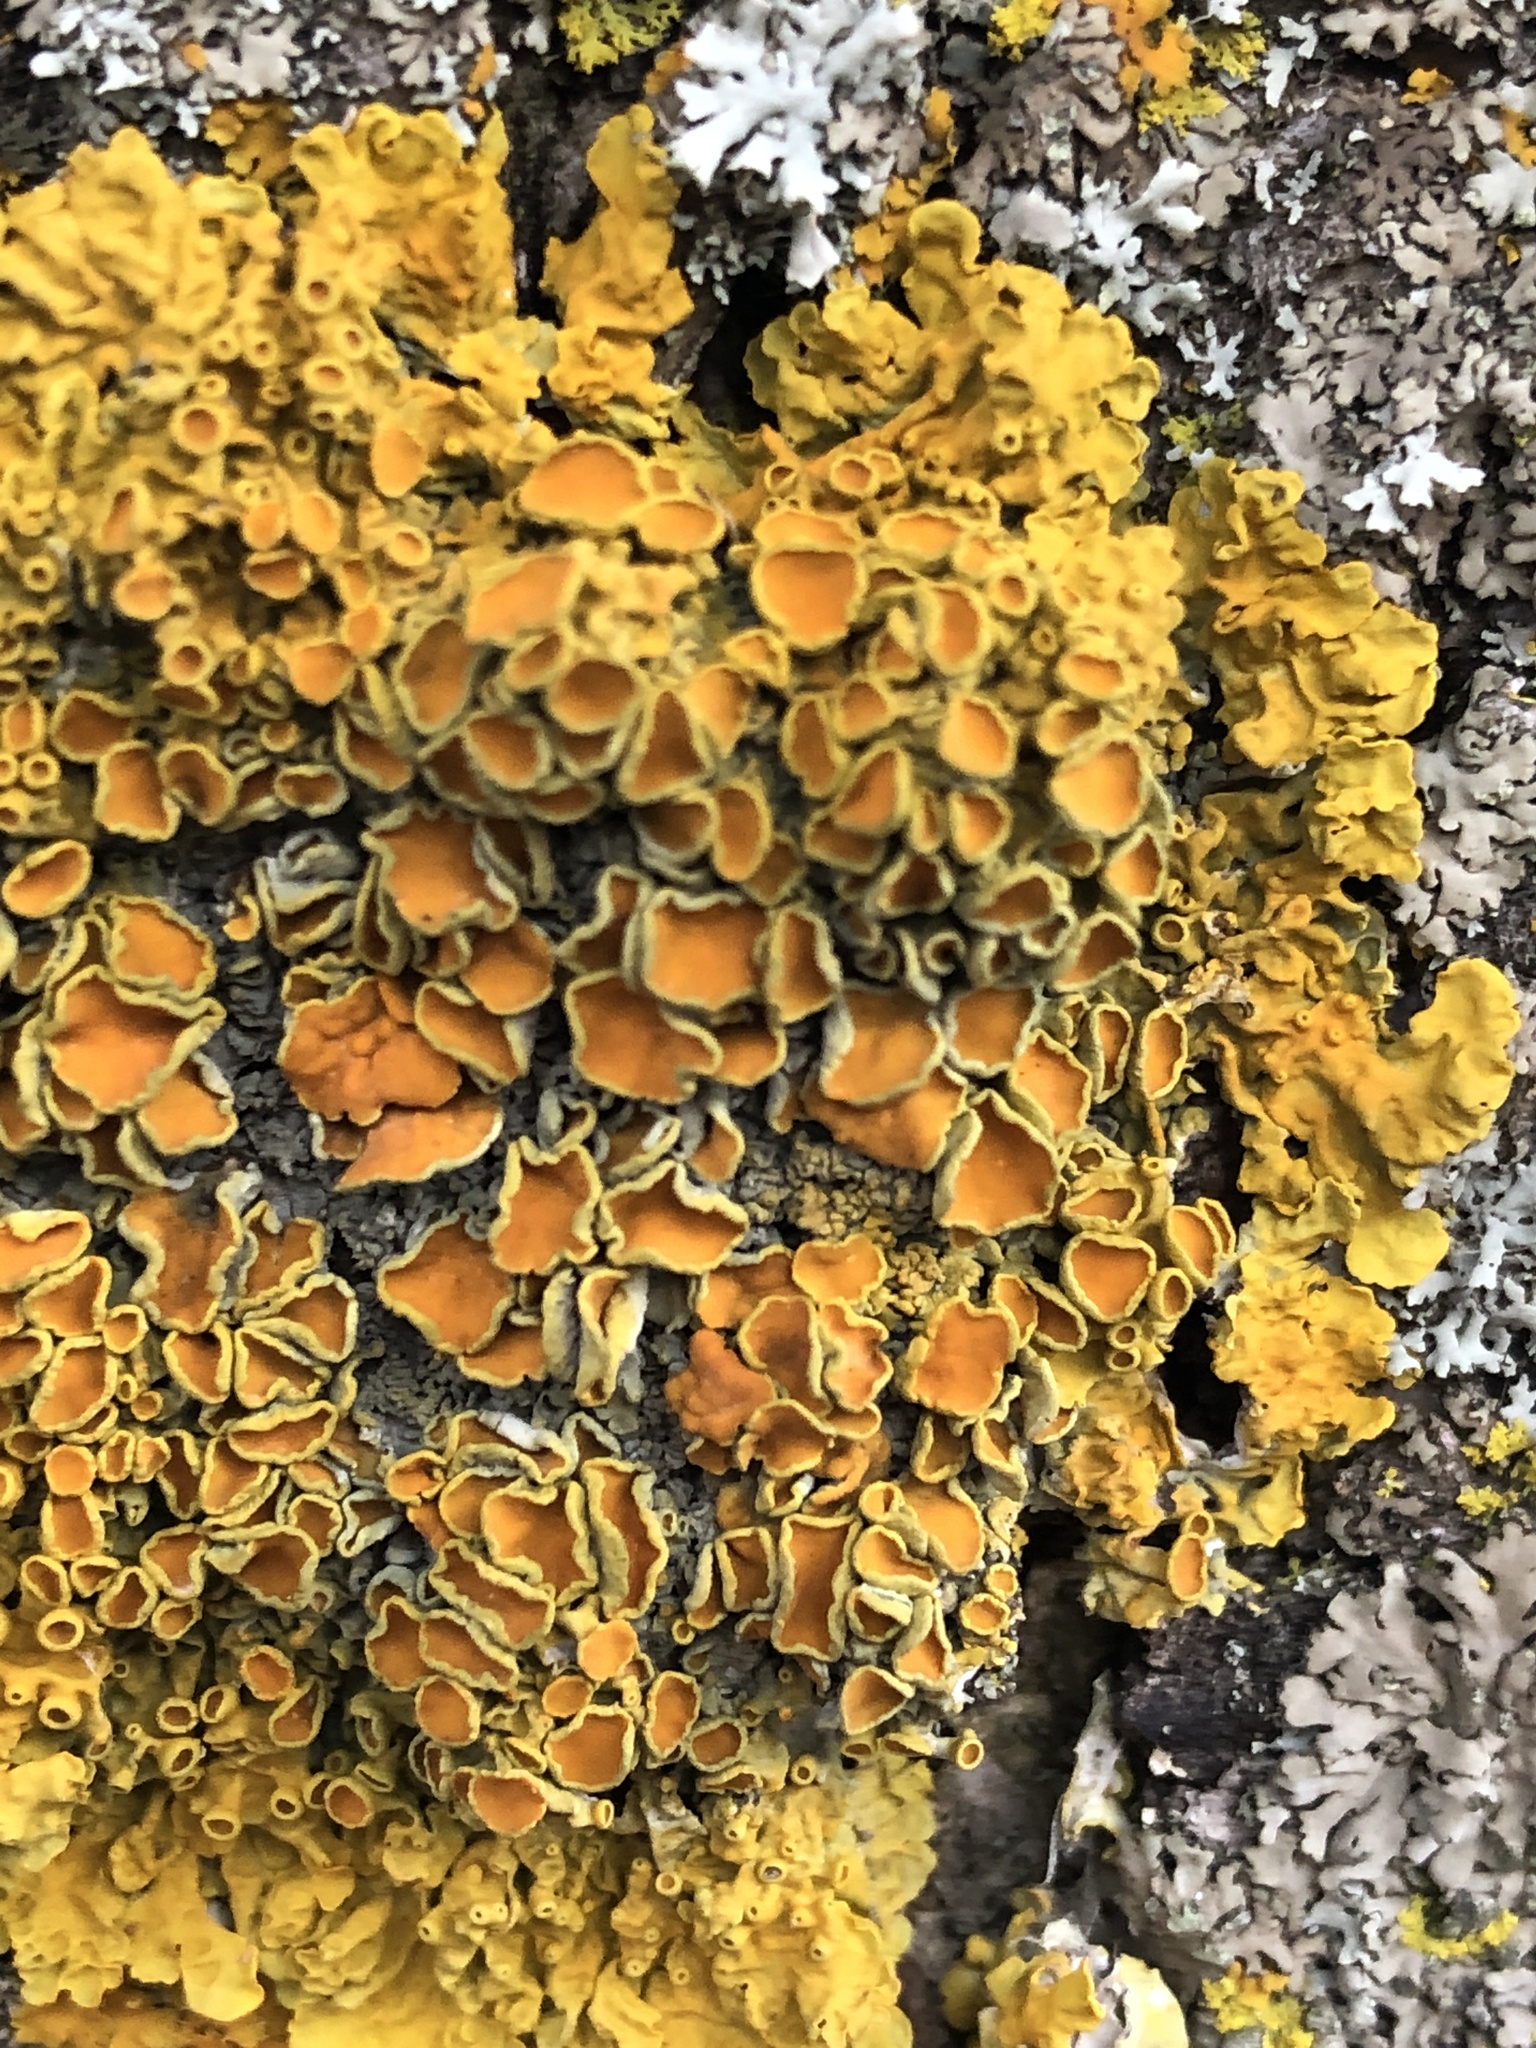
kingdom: Fungi
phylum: Ascomycota
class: Lecanoromycetes
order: Teloschistales
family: Teloschistaceae
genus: Xanthoria
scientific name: Xanthoria parietina
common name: Common orange lichen
